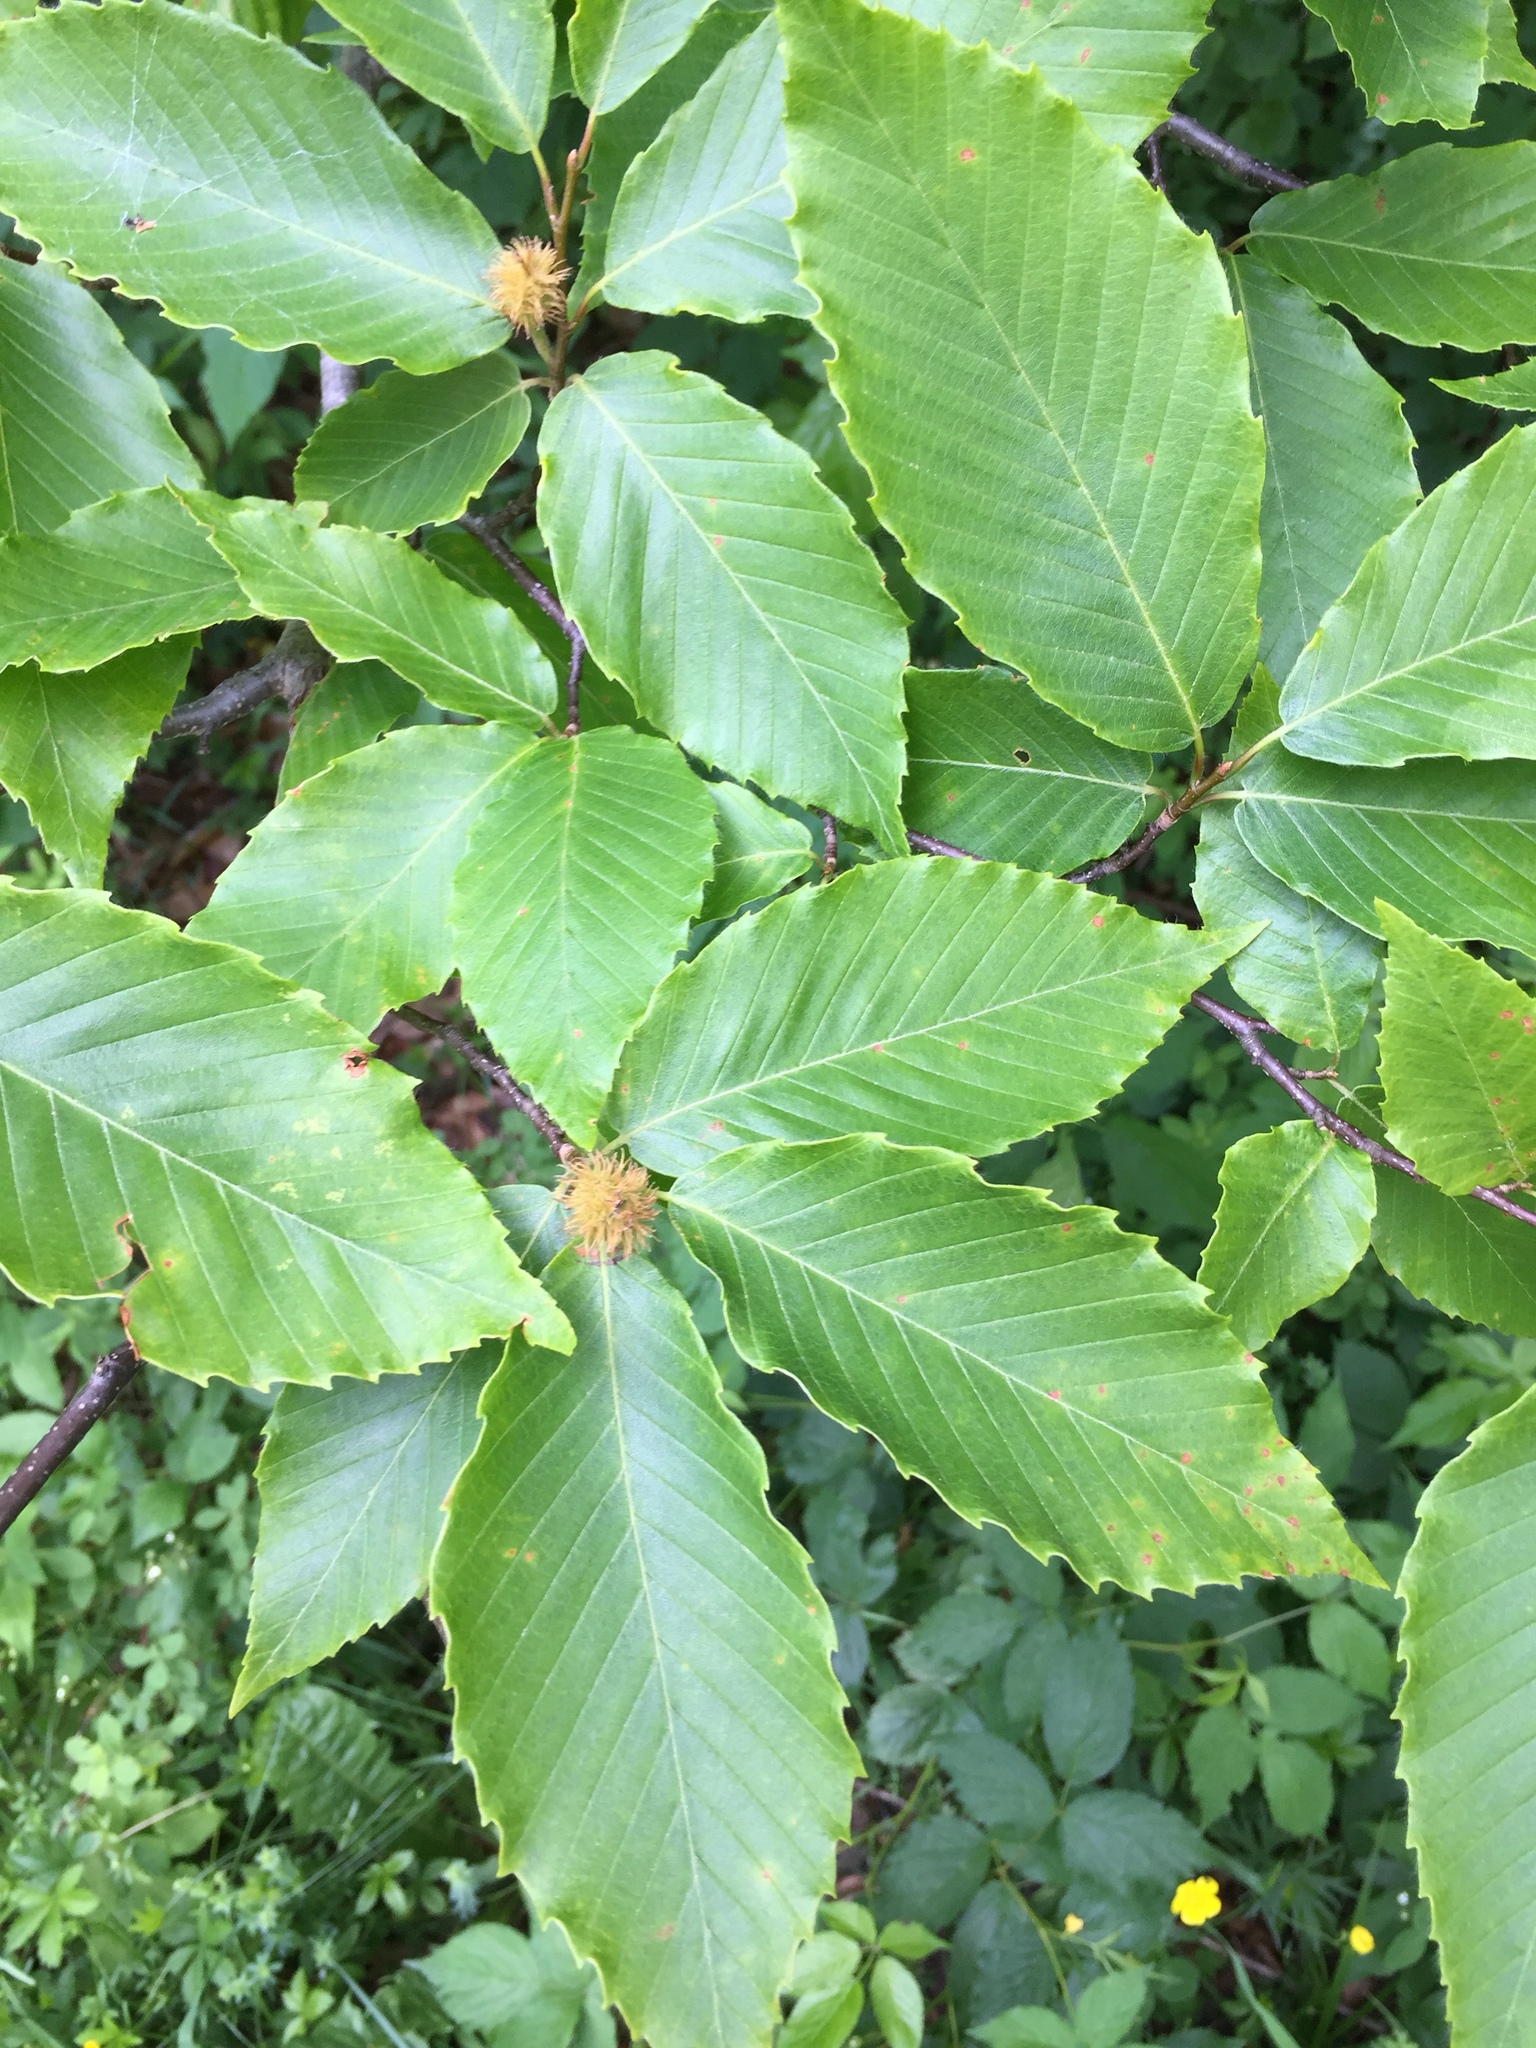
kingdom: Plantae
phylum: Tracheophyta
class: Magnoliopsida
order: Fagales
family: Fagaceae
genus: Fagus
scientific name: Fagus grandifolia
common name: American beech
